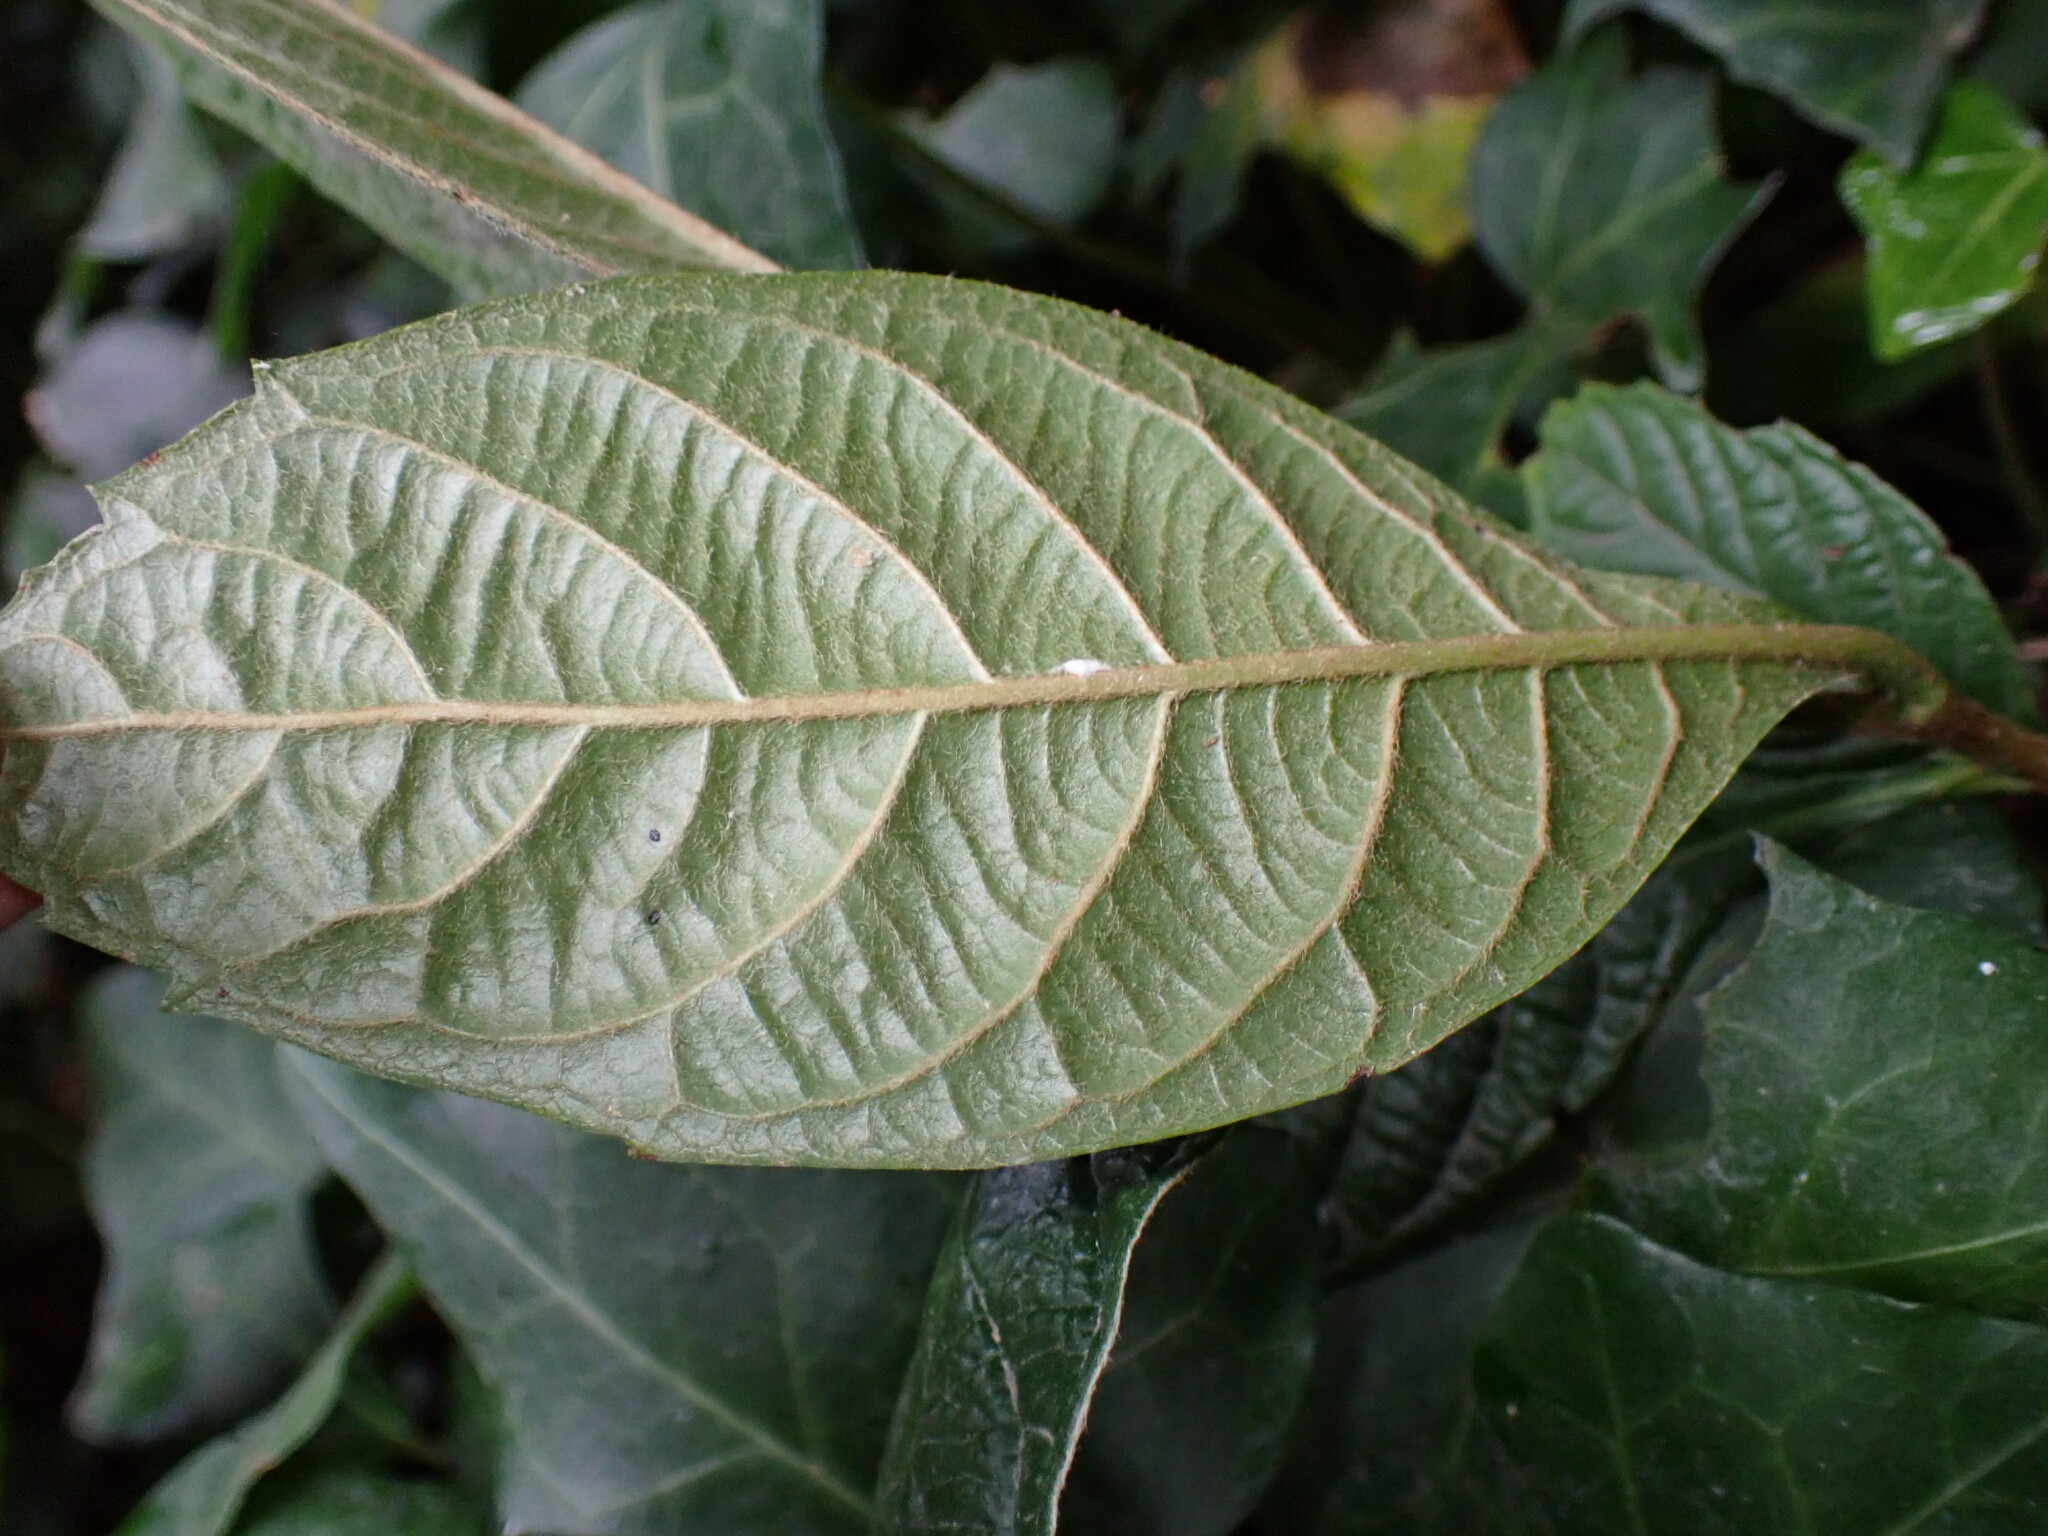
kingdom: Plantae
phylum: Tracheophyta
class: Magnoliopsida
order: Rosales
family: Rosaceae
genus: Rhaphiolepis
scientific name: Rhaphiolepis bibas
